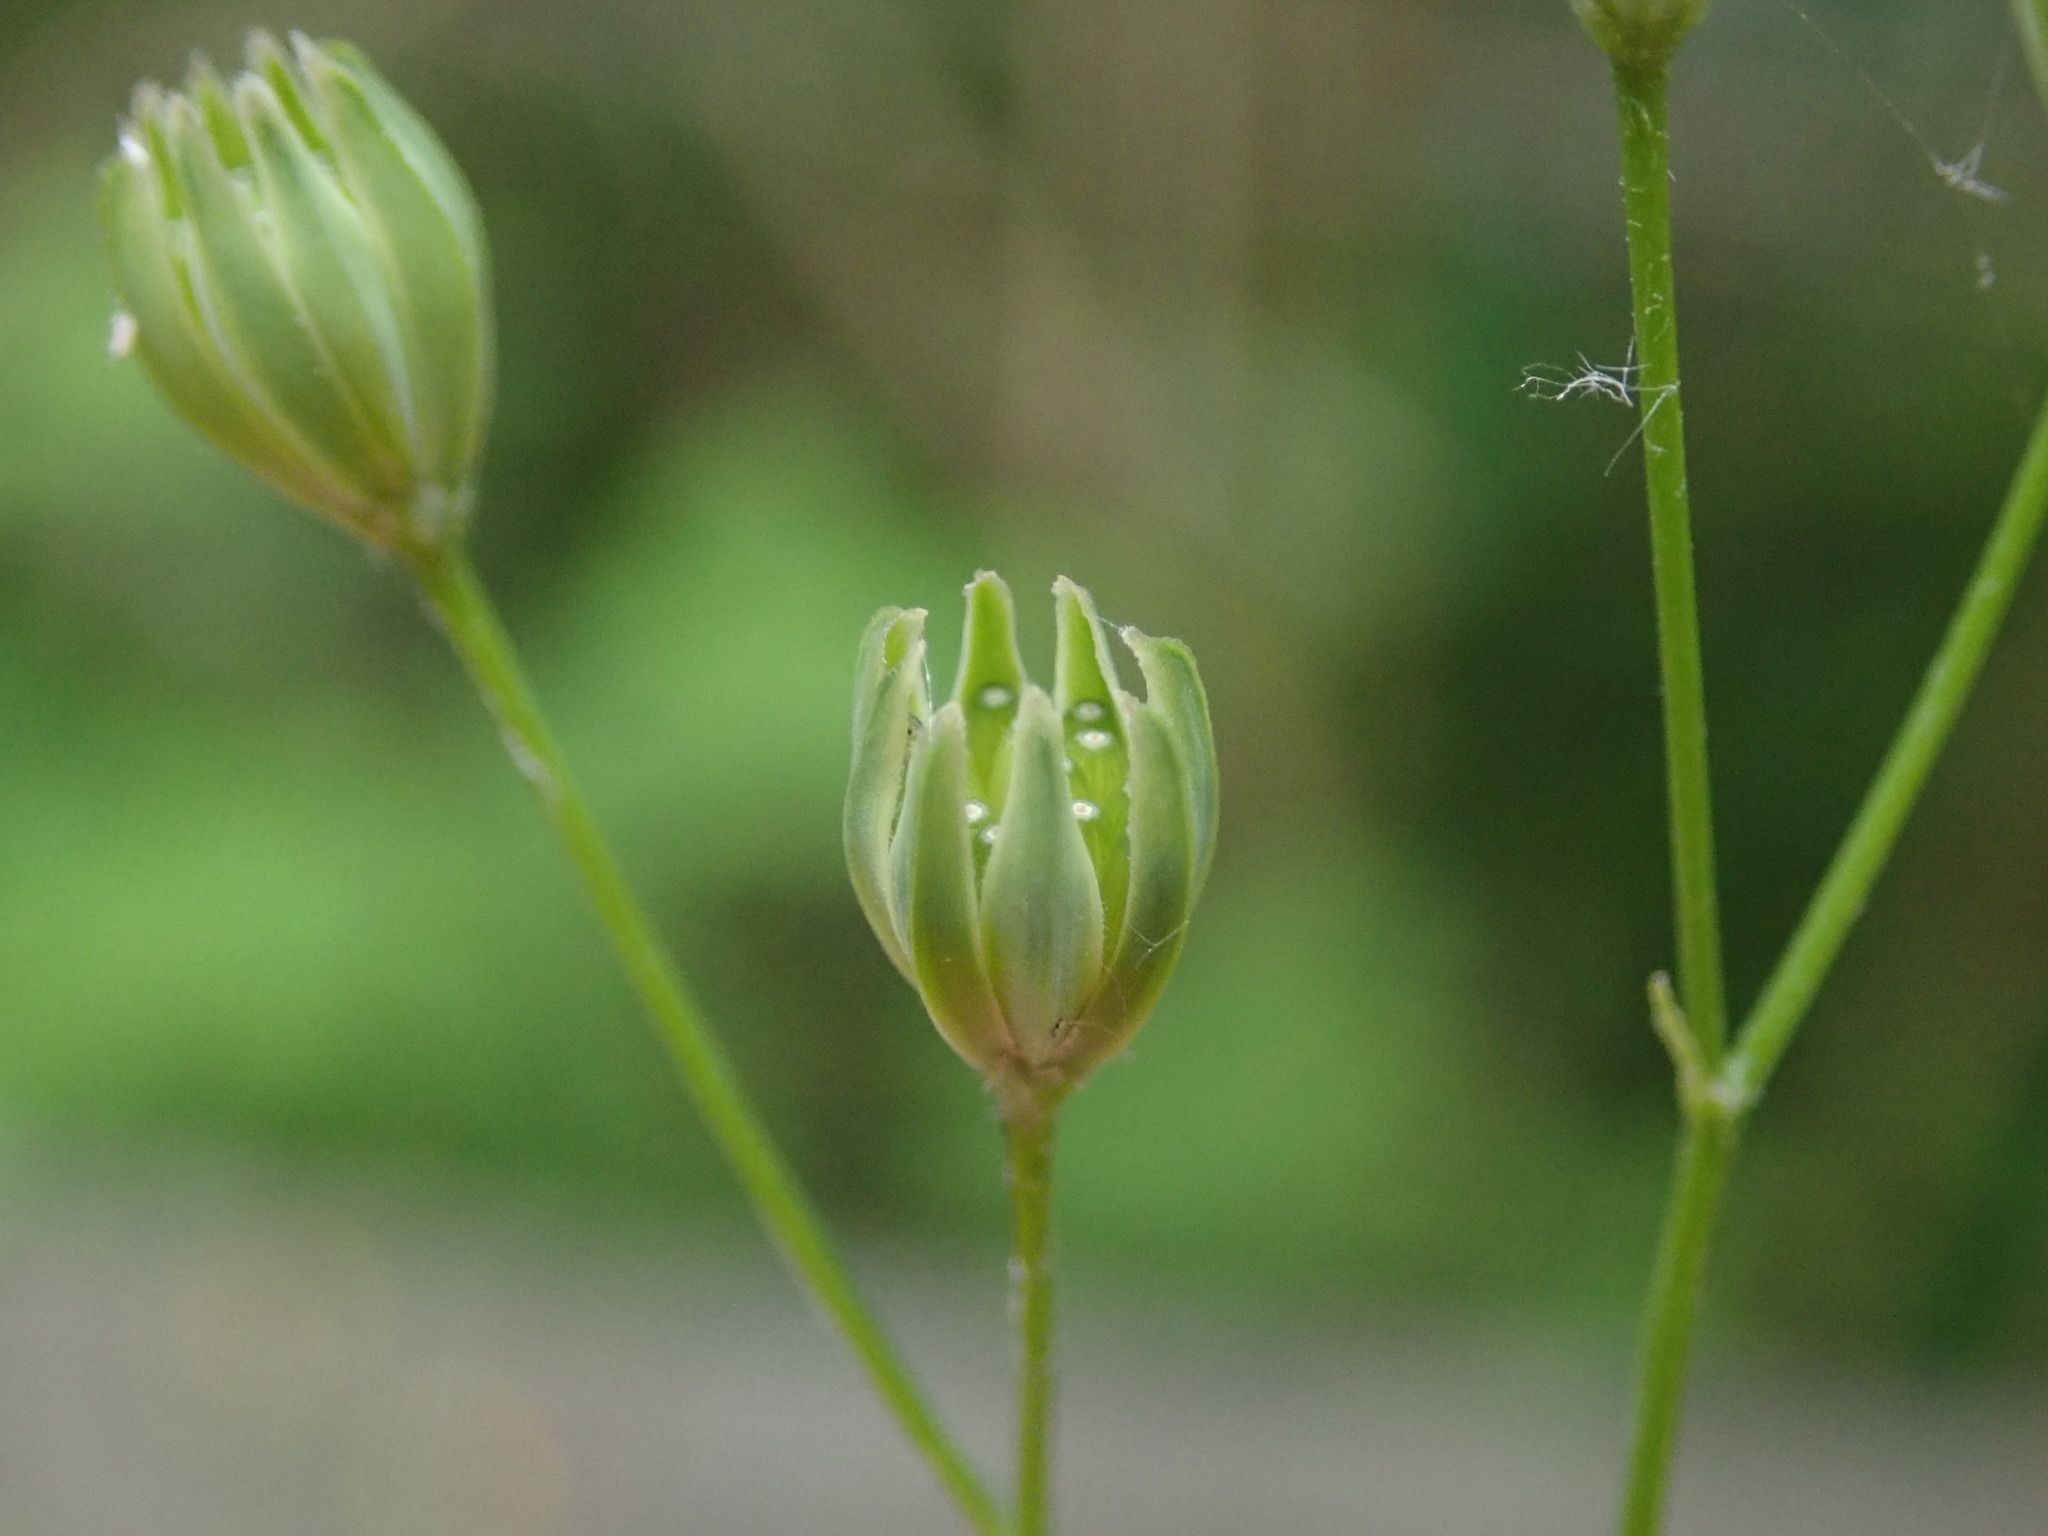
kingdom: Plantae
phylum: Tracheophyta
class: Magnoliopsida
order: Asterales
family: Asteraceae
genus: Lapsana
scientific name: Lapsana communis
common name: Nipplewort
